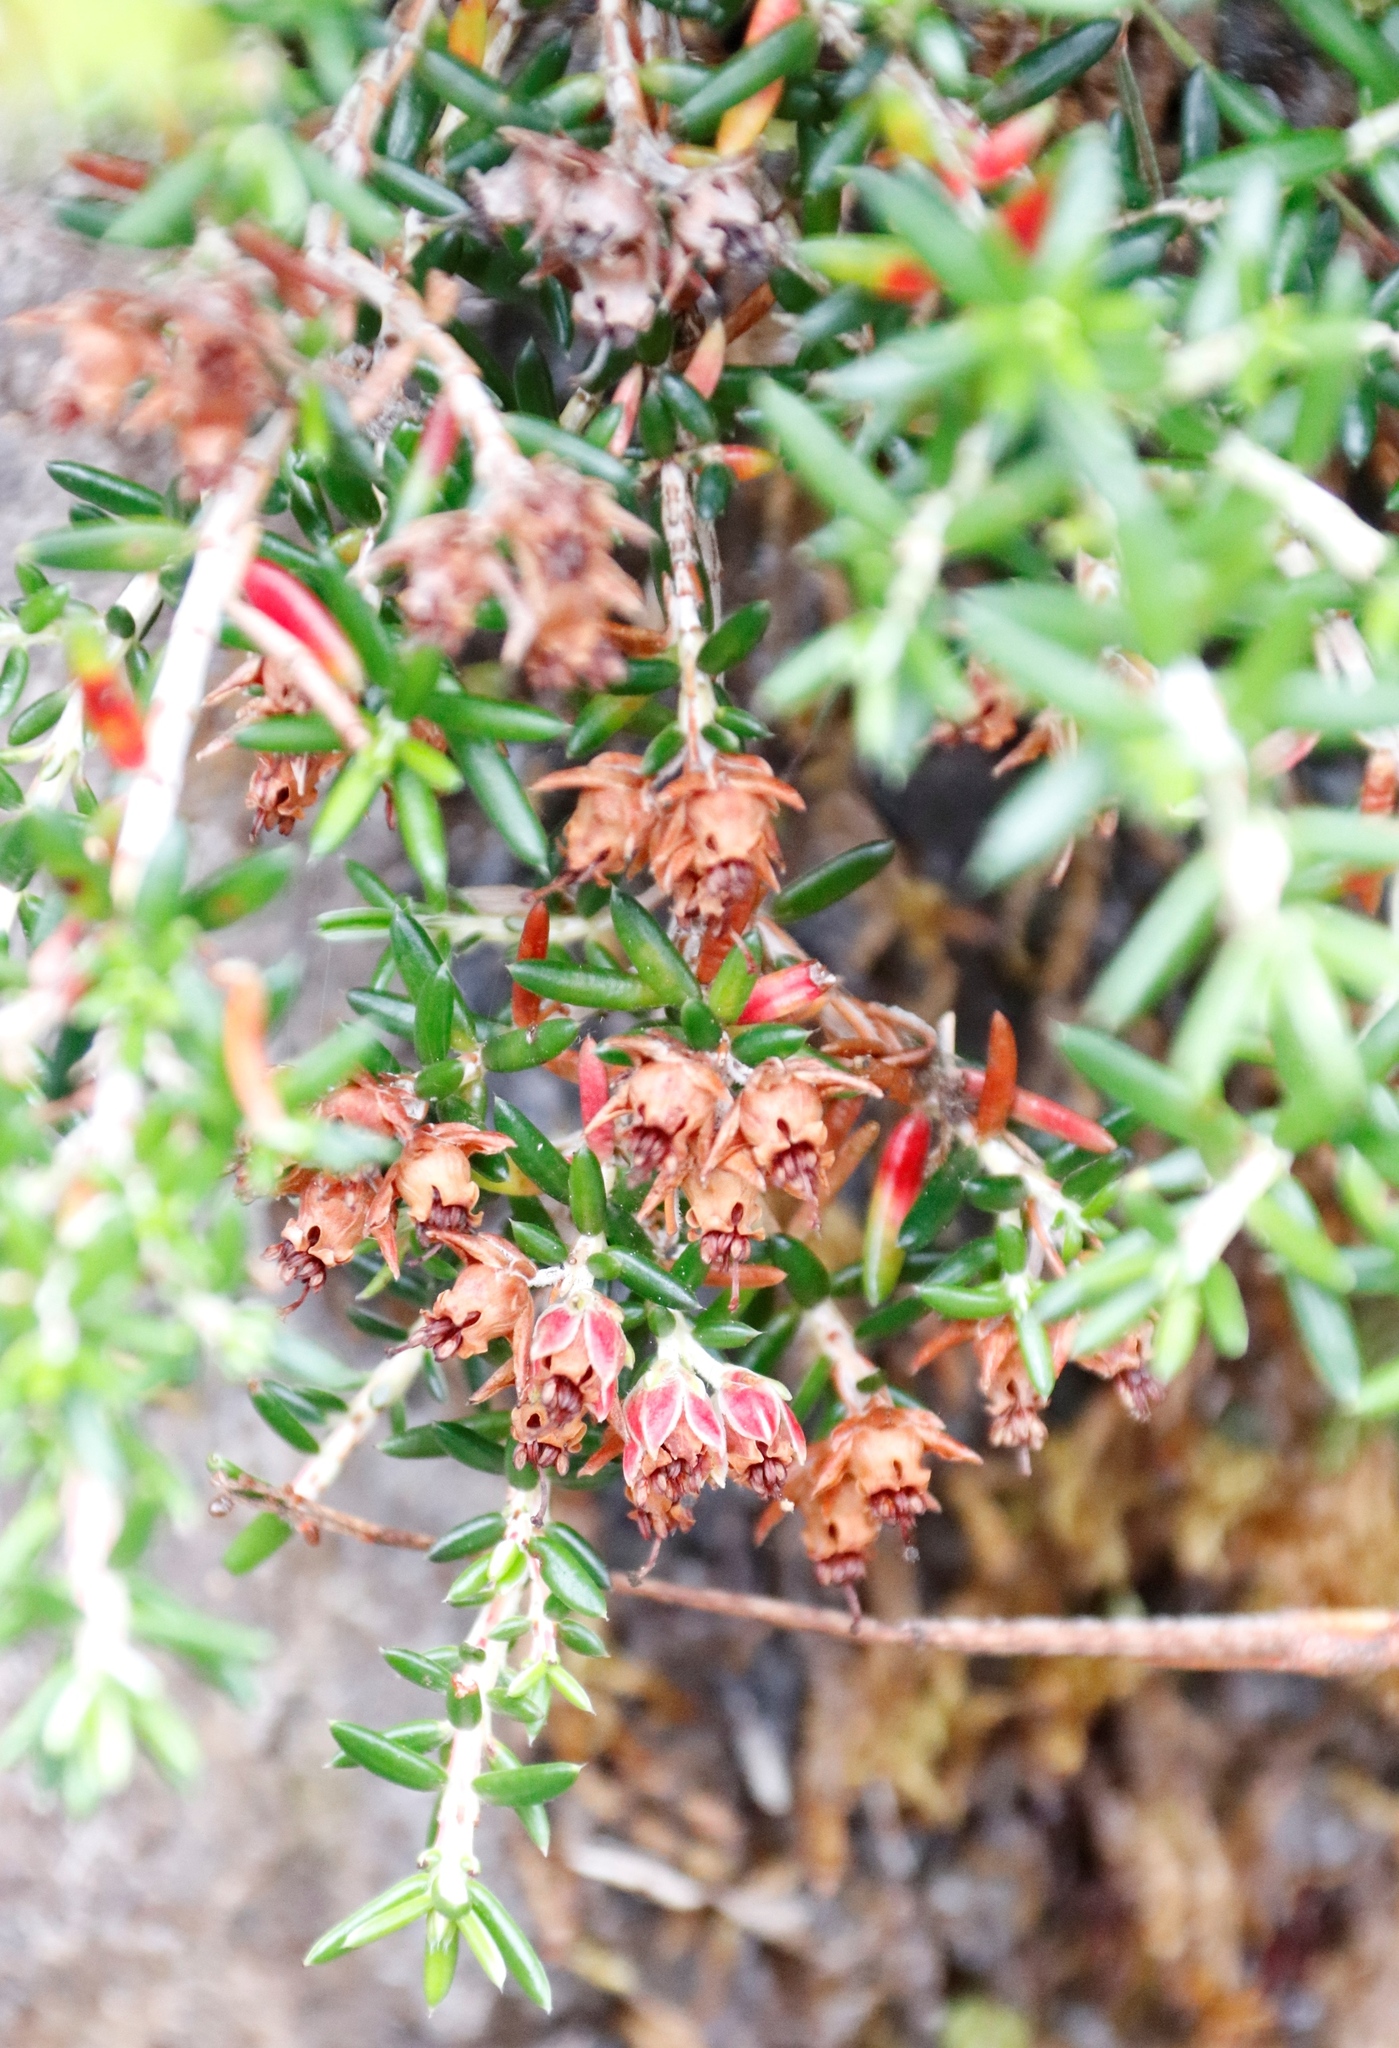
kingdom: Plantae
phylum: Tracheophyta
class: Magnoliopsida
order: Ericales
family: Ericaceae
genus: Erica
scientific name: Erica petiolaris
